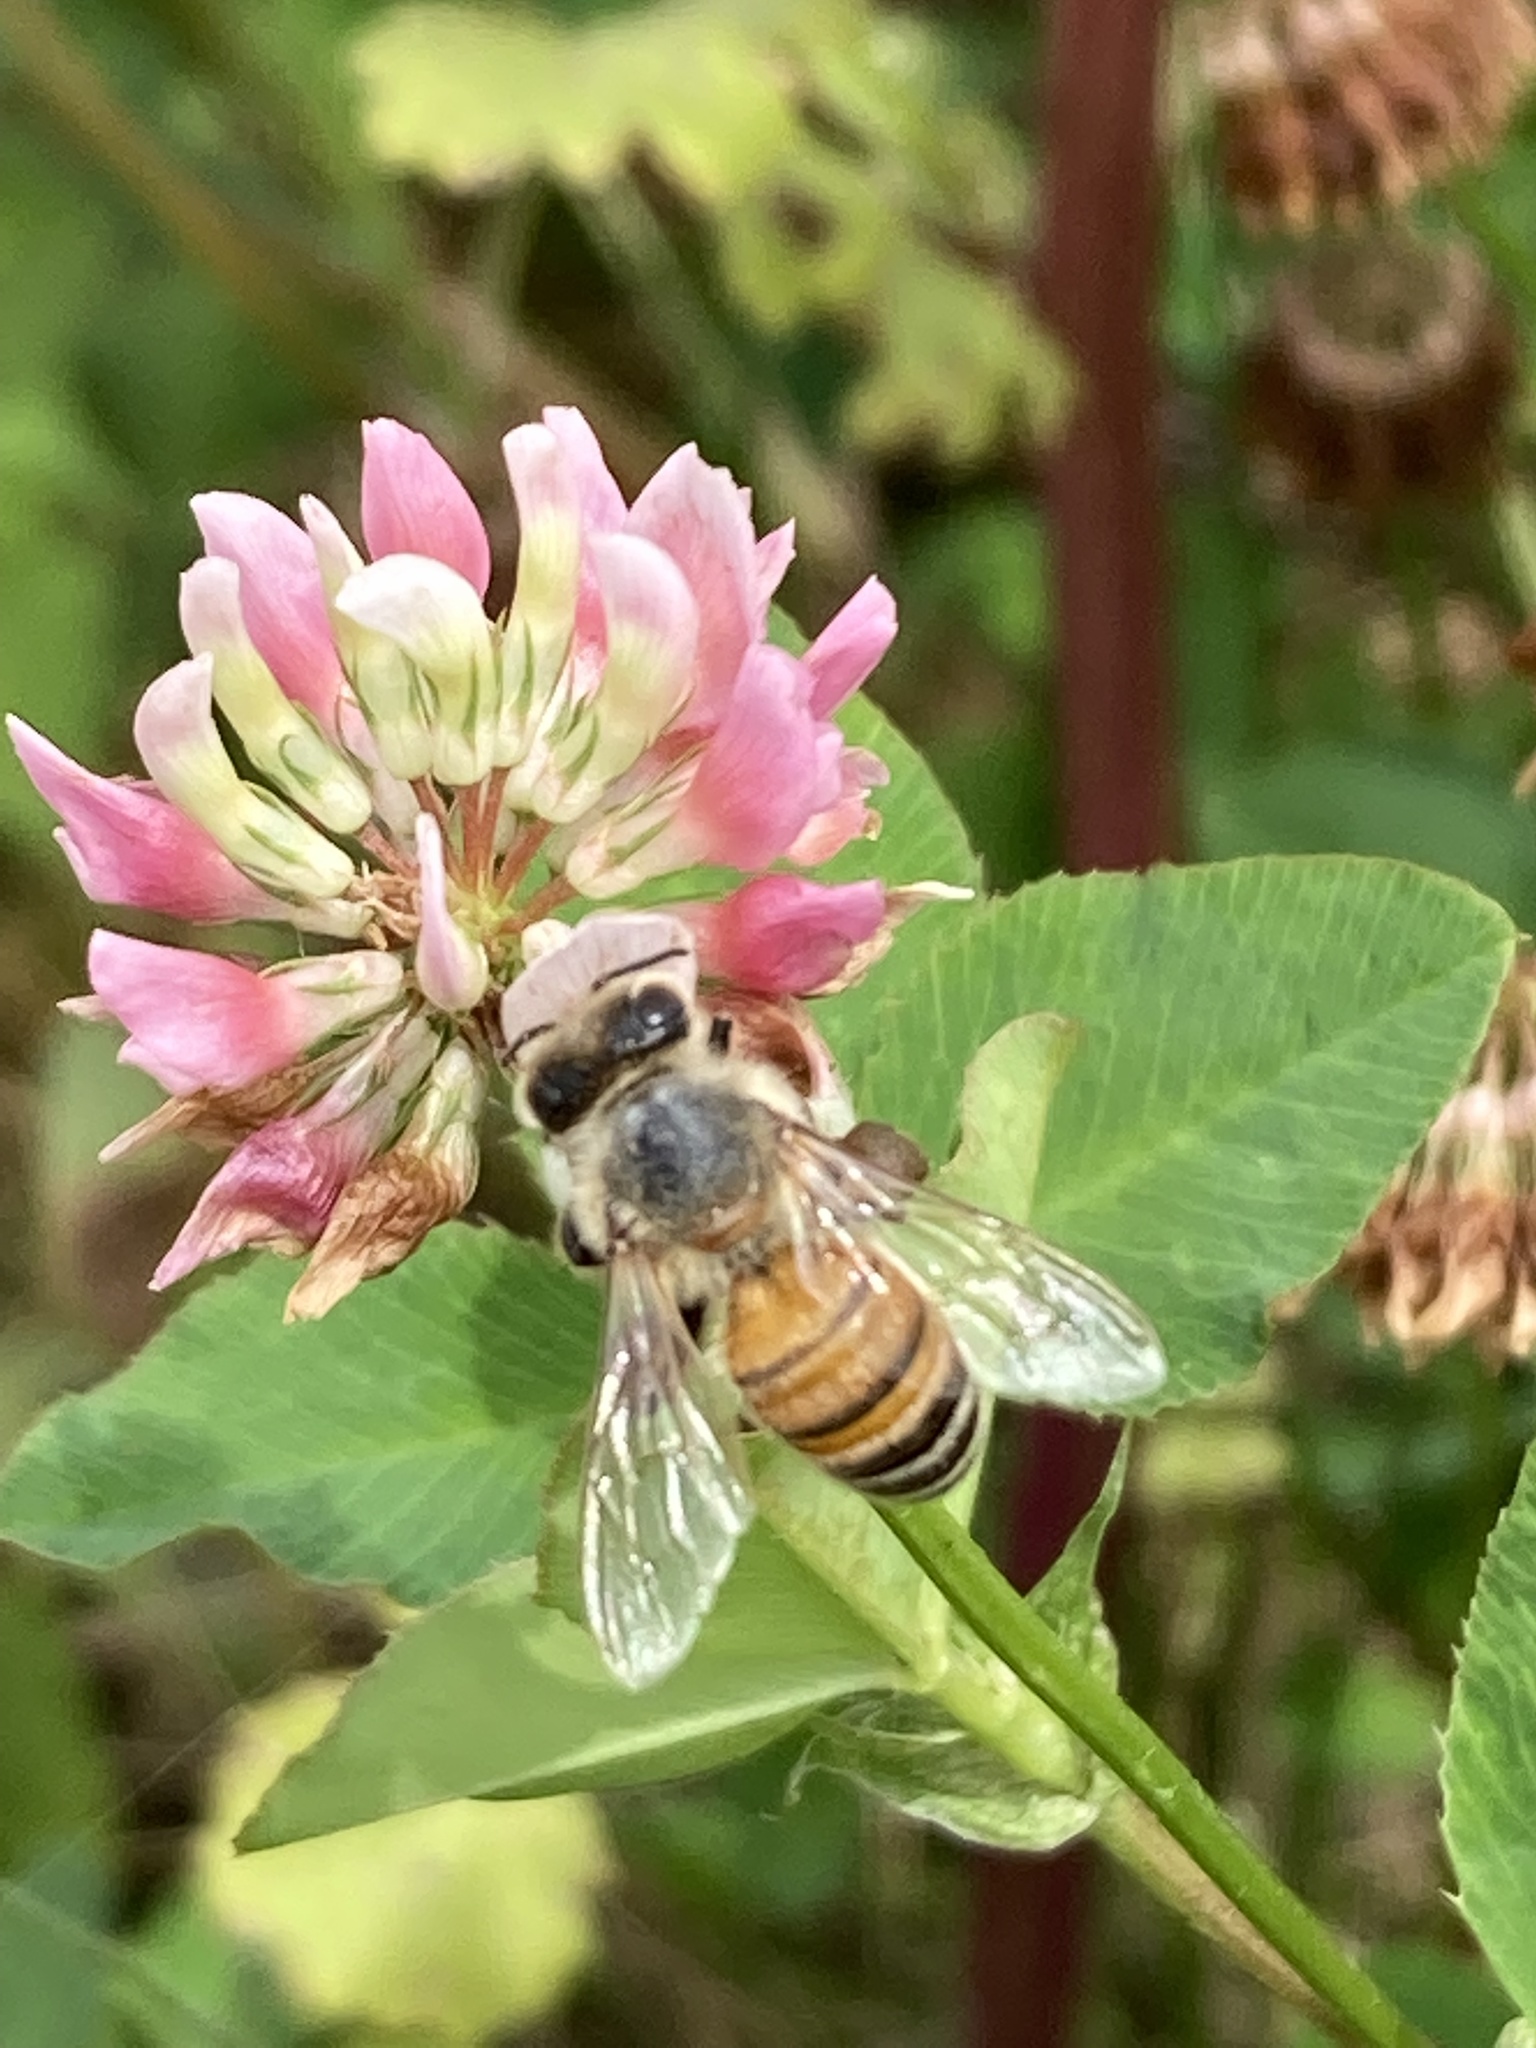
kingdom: Animalia
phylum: Arthropoda
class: Insecta
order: Hymenoptera
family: Apidae
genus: Apis
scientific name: Apis mellifera
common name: Honey bee
